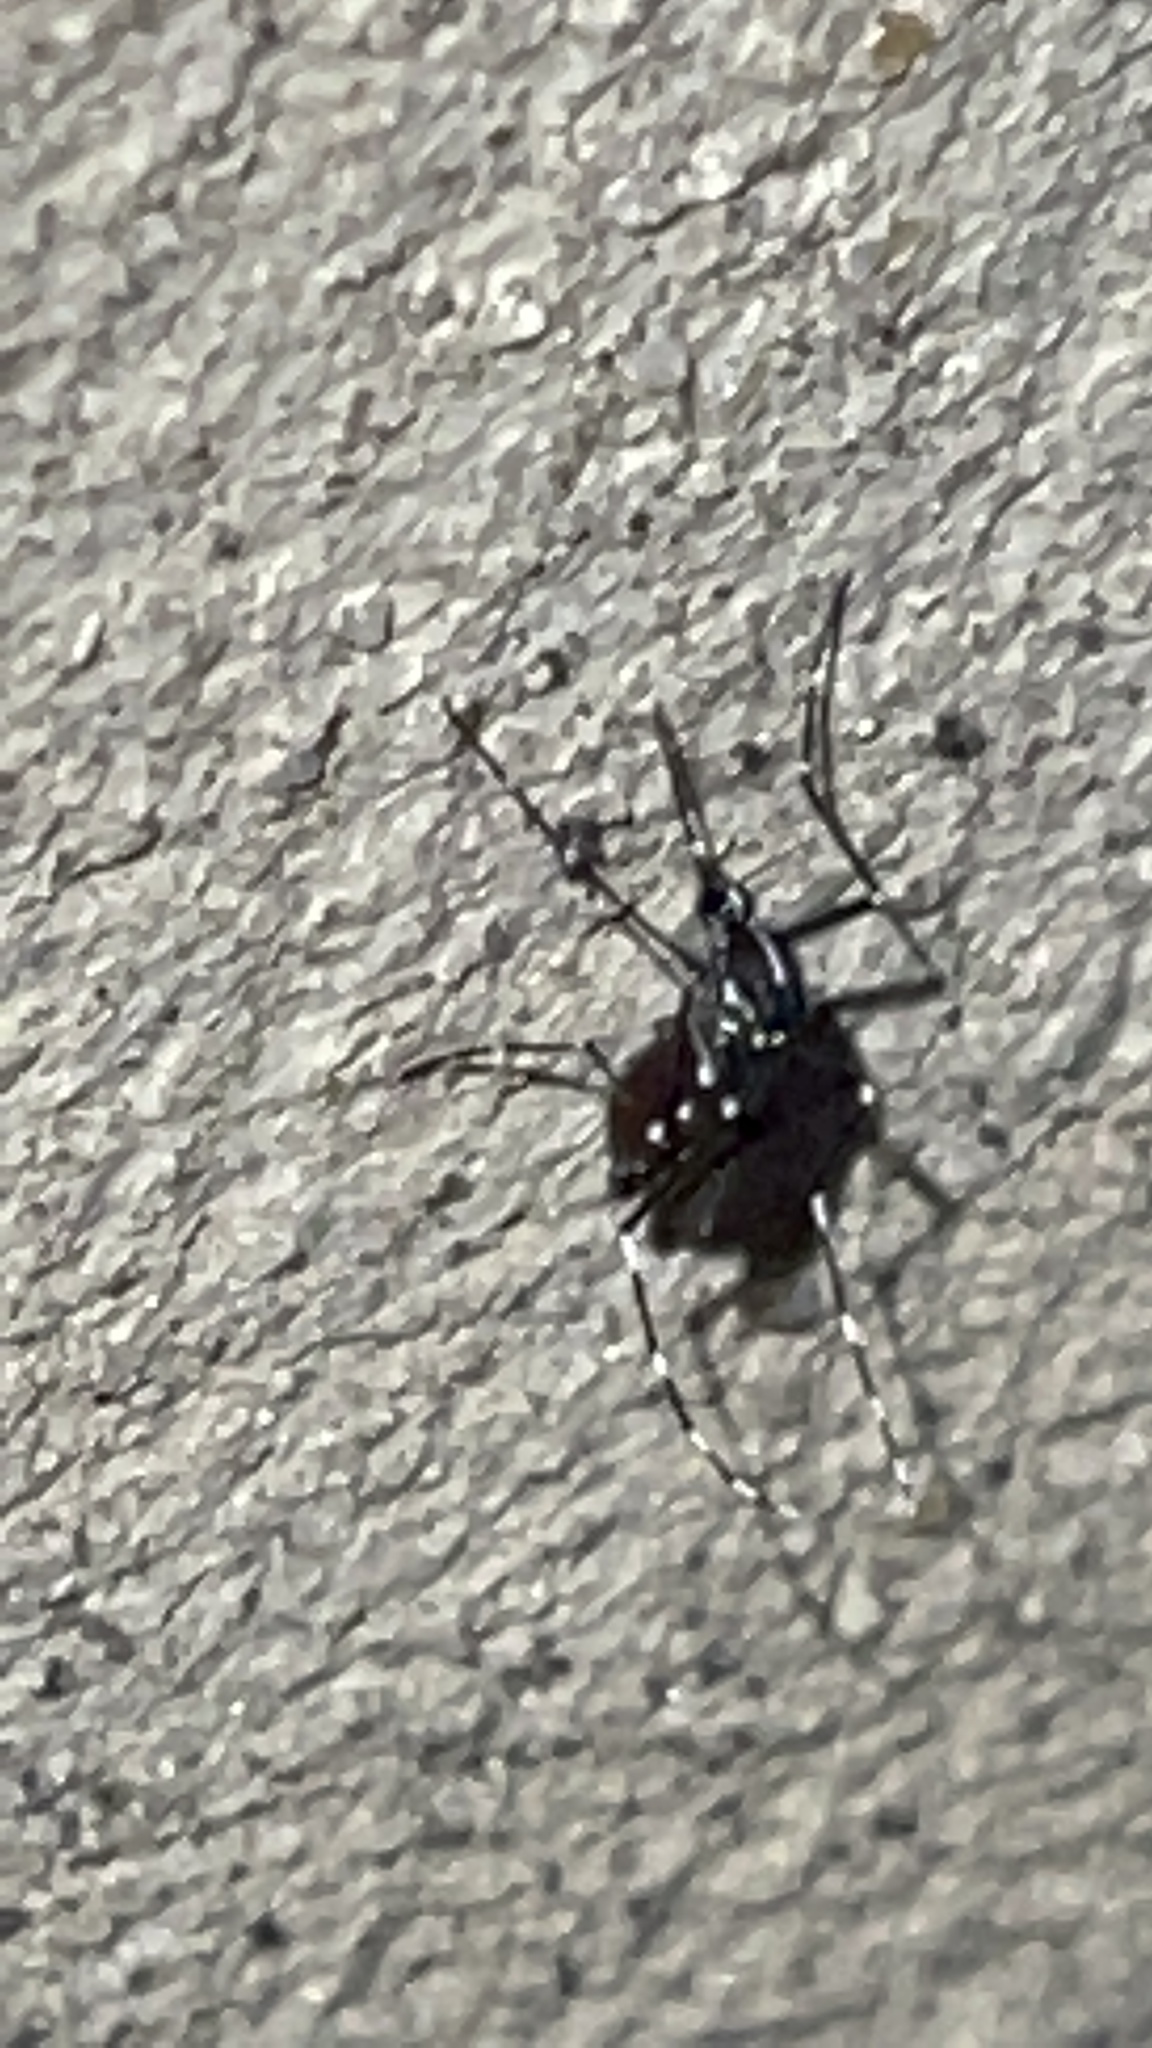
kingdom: Animalia
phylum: Arthropoda
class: Insecta
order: Diptera
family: Culicidae
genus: Aedes
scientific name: Aedes albopictus
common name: Tiger mosquito
